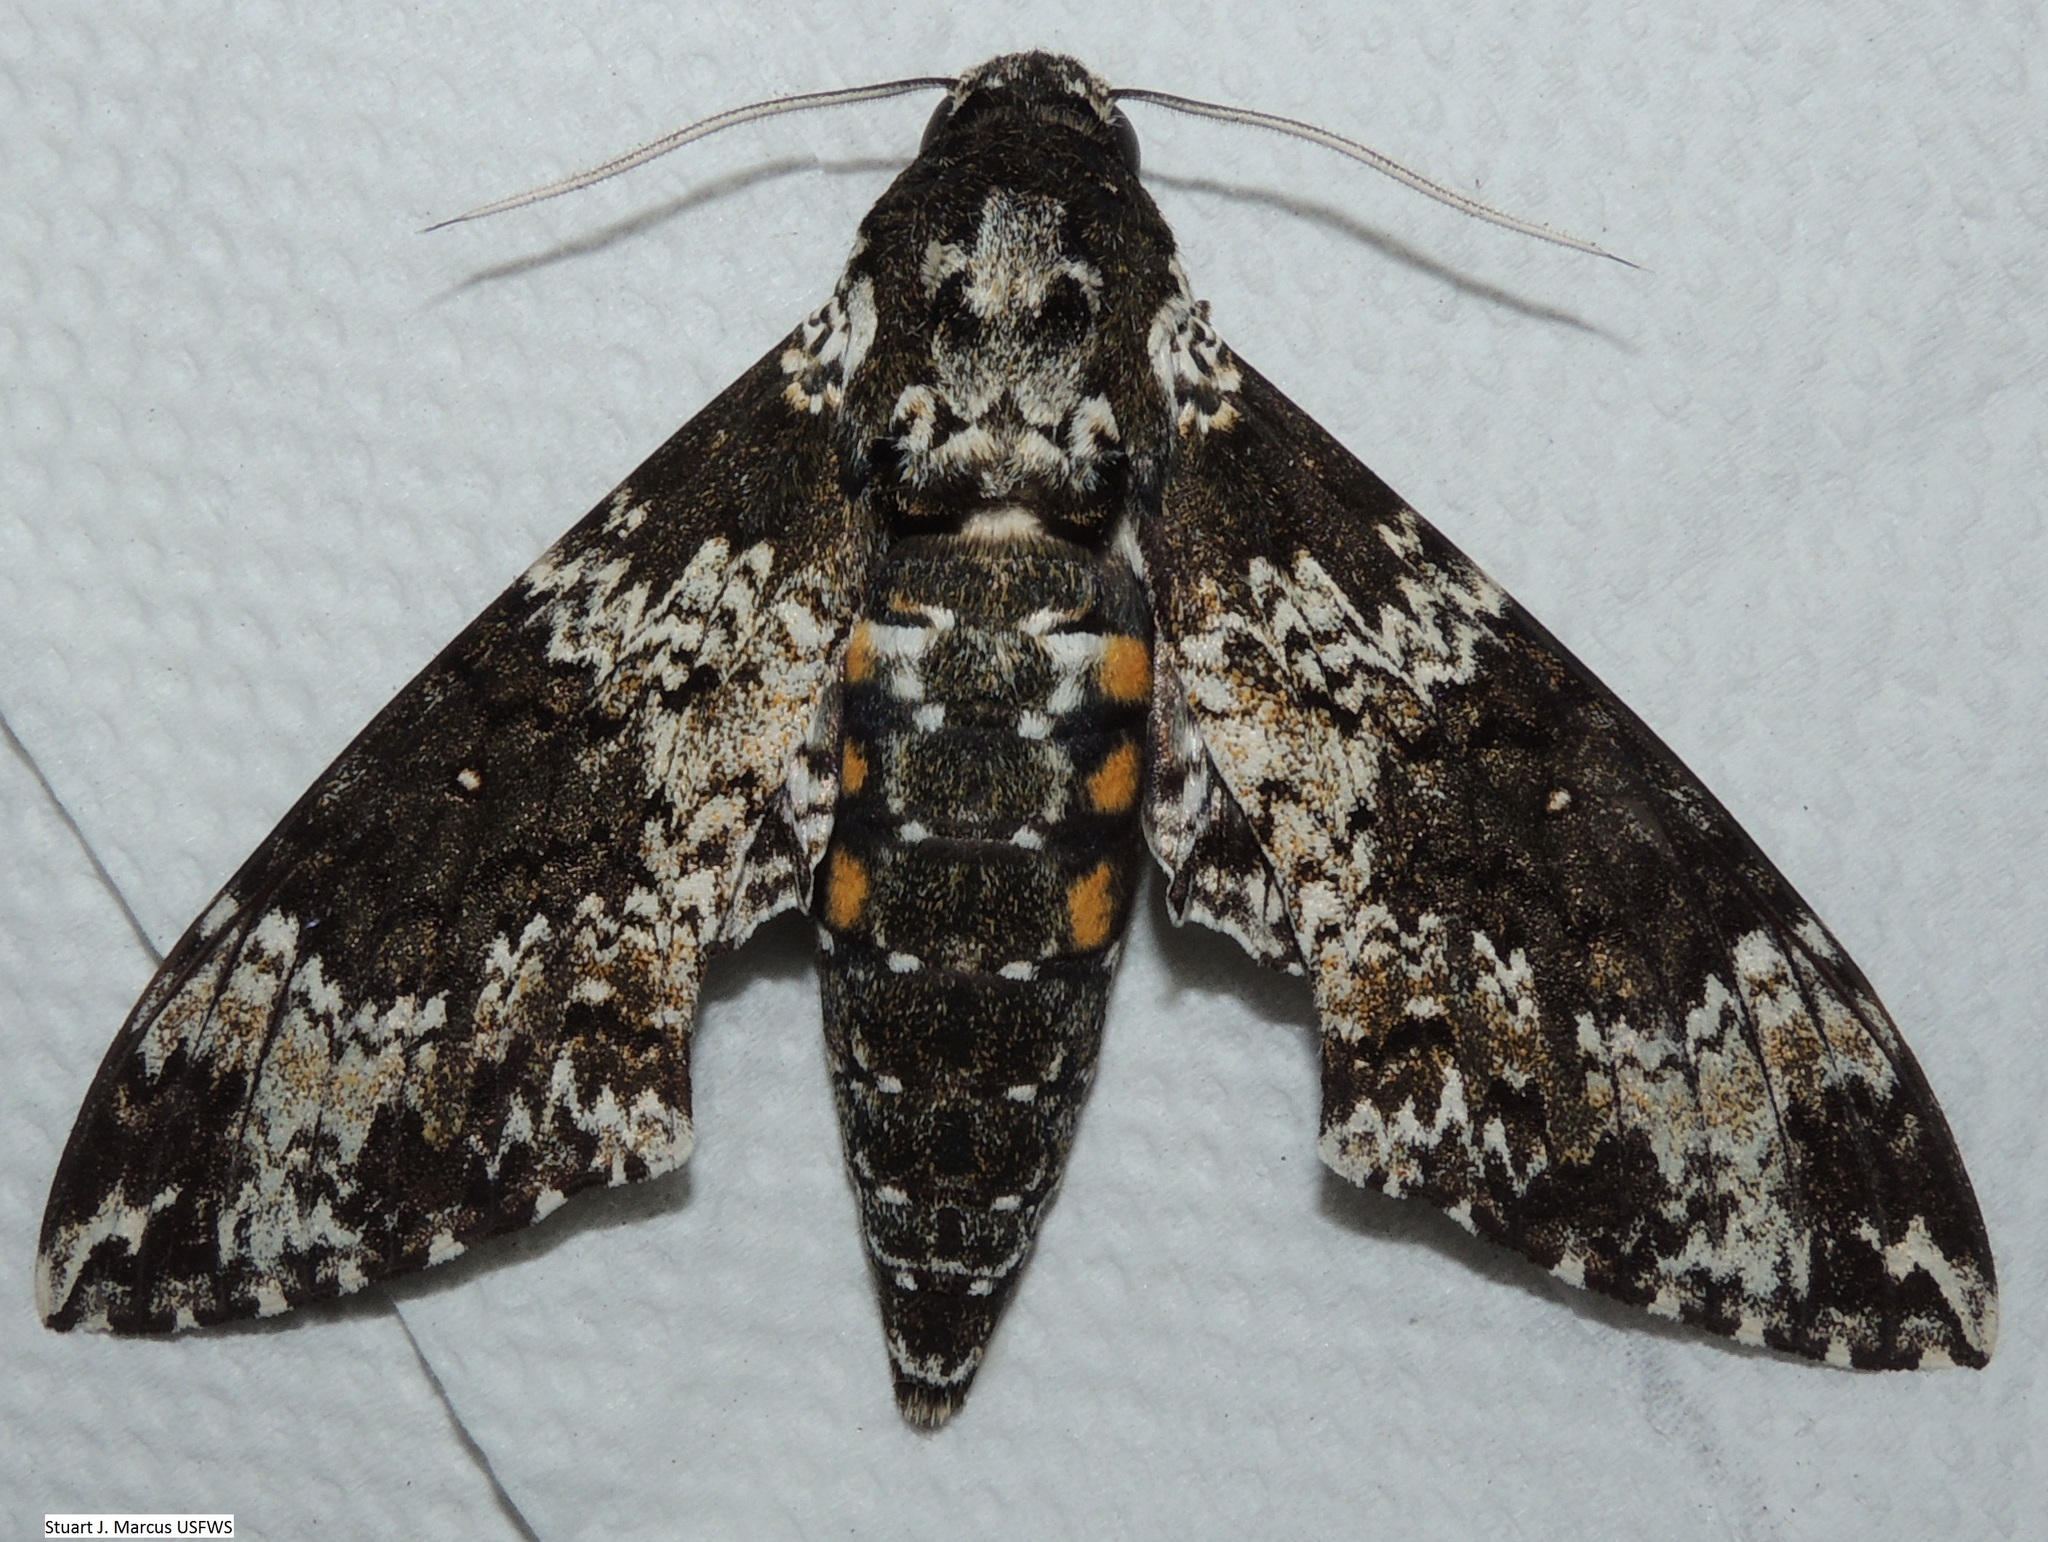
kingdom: Animalia
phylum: Arthropoda
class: Insecta
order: Lepidoptera
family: Sphingidae
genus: Manduca
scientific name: Manduca rustica
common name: Rustic sphinx
